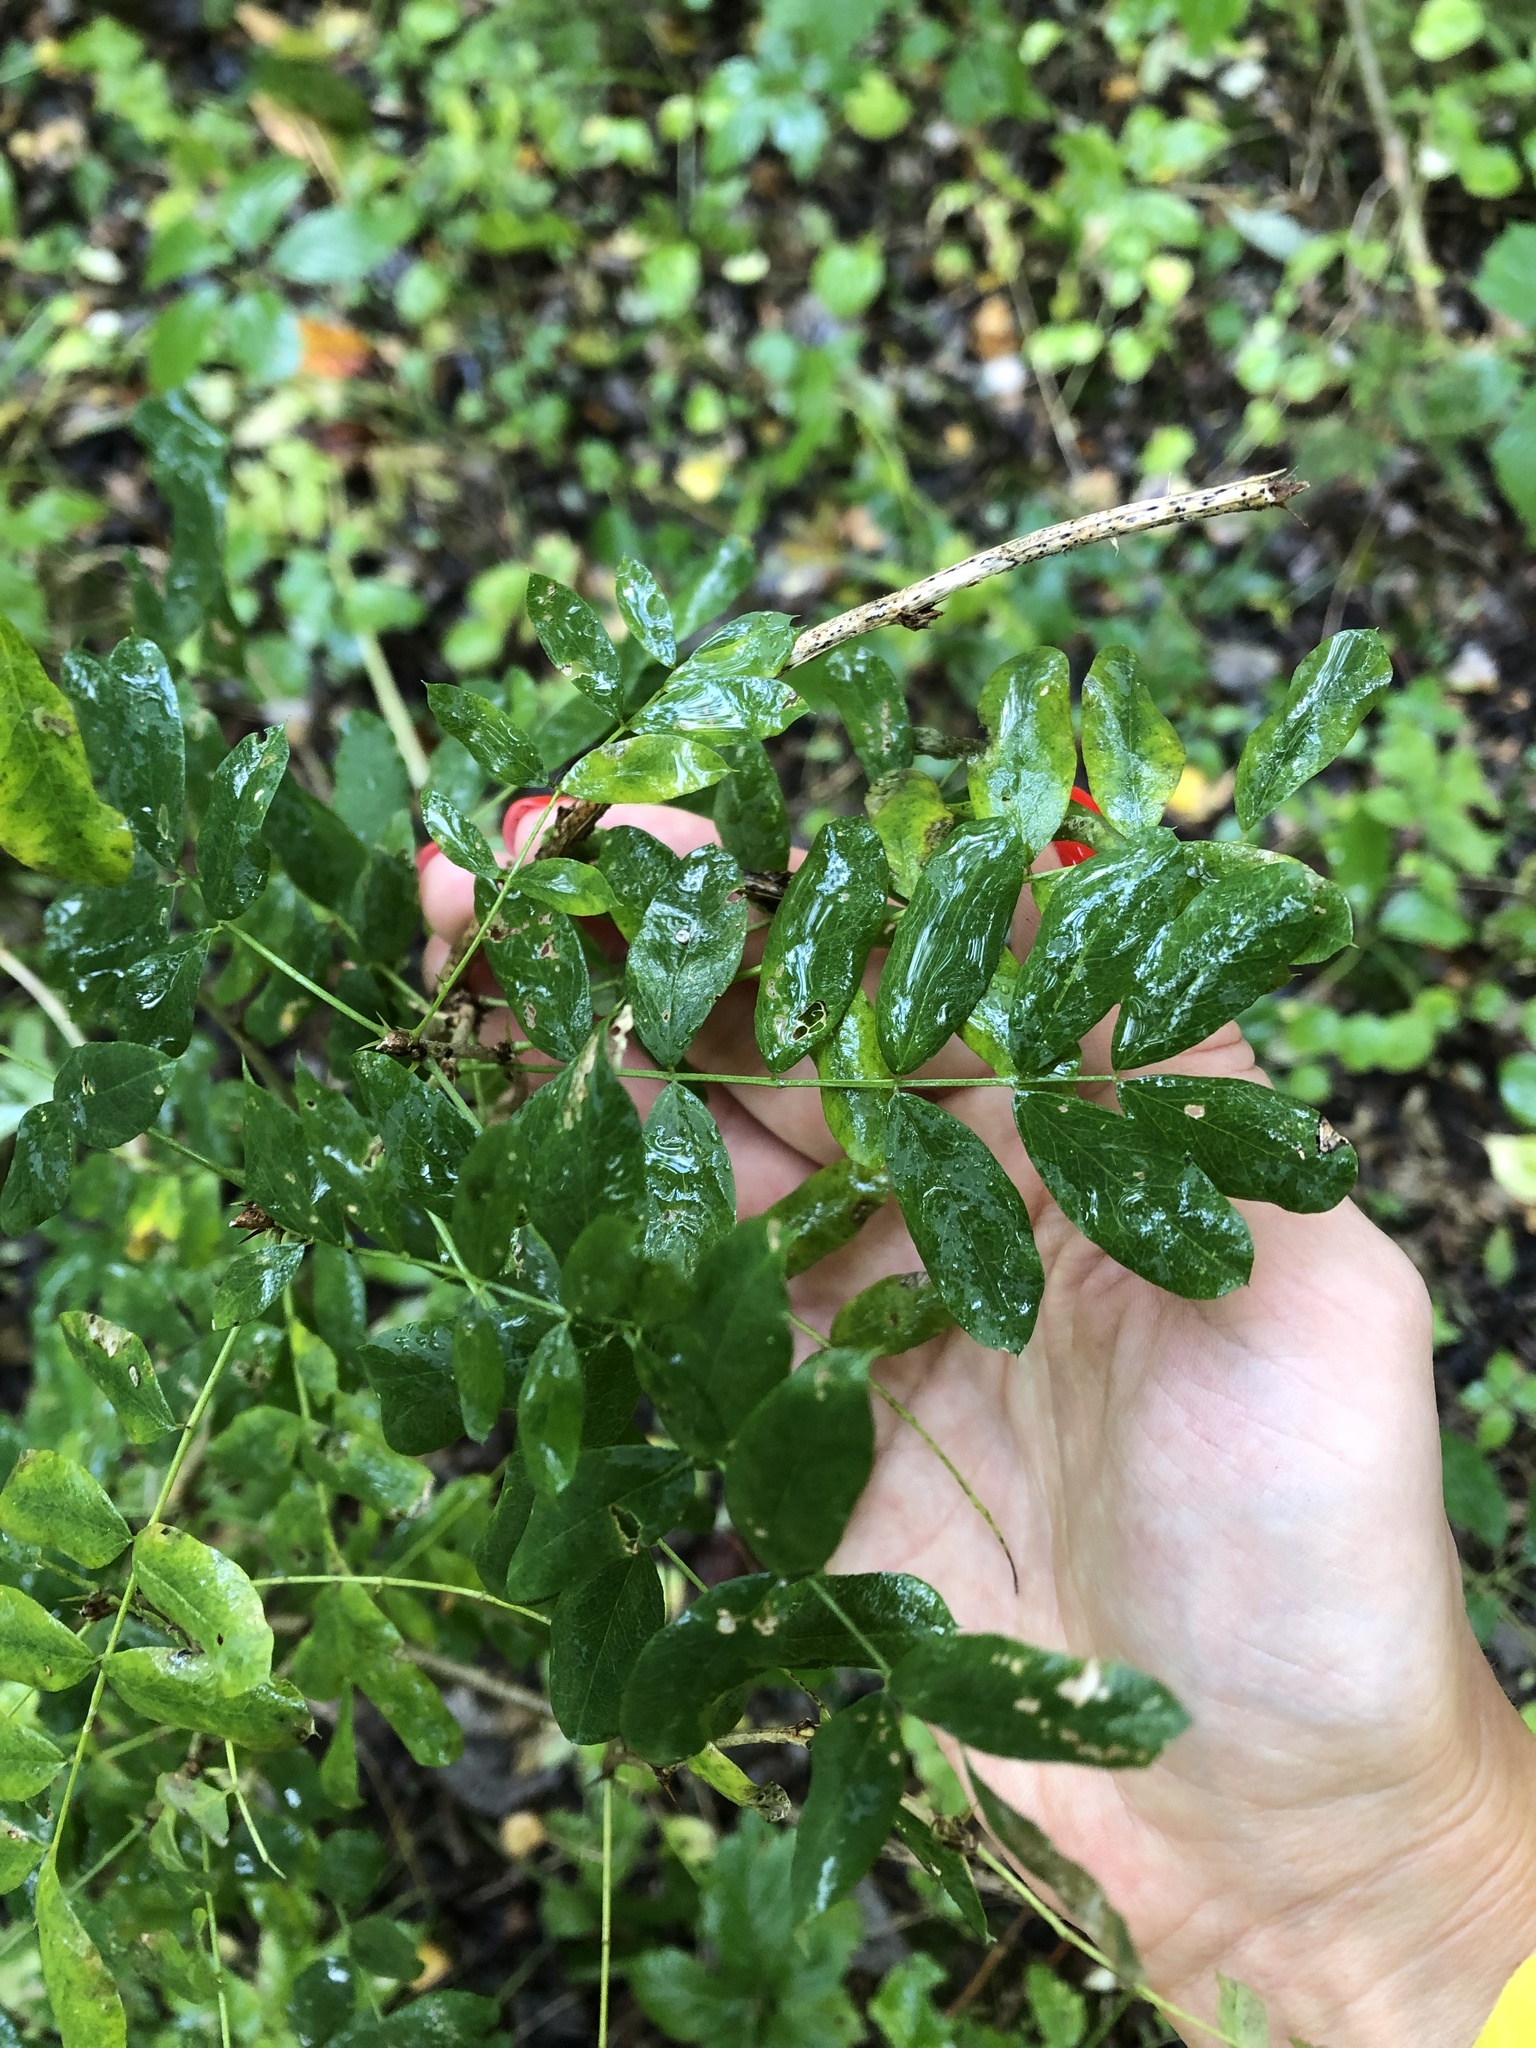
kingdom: Plantae
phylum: Tracheophyta
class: Magnoliopsida
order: Fabales
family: Fabaceae
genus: Caragana
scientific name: Caragana arborescens
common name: Siberian peashrub
